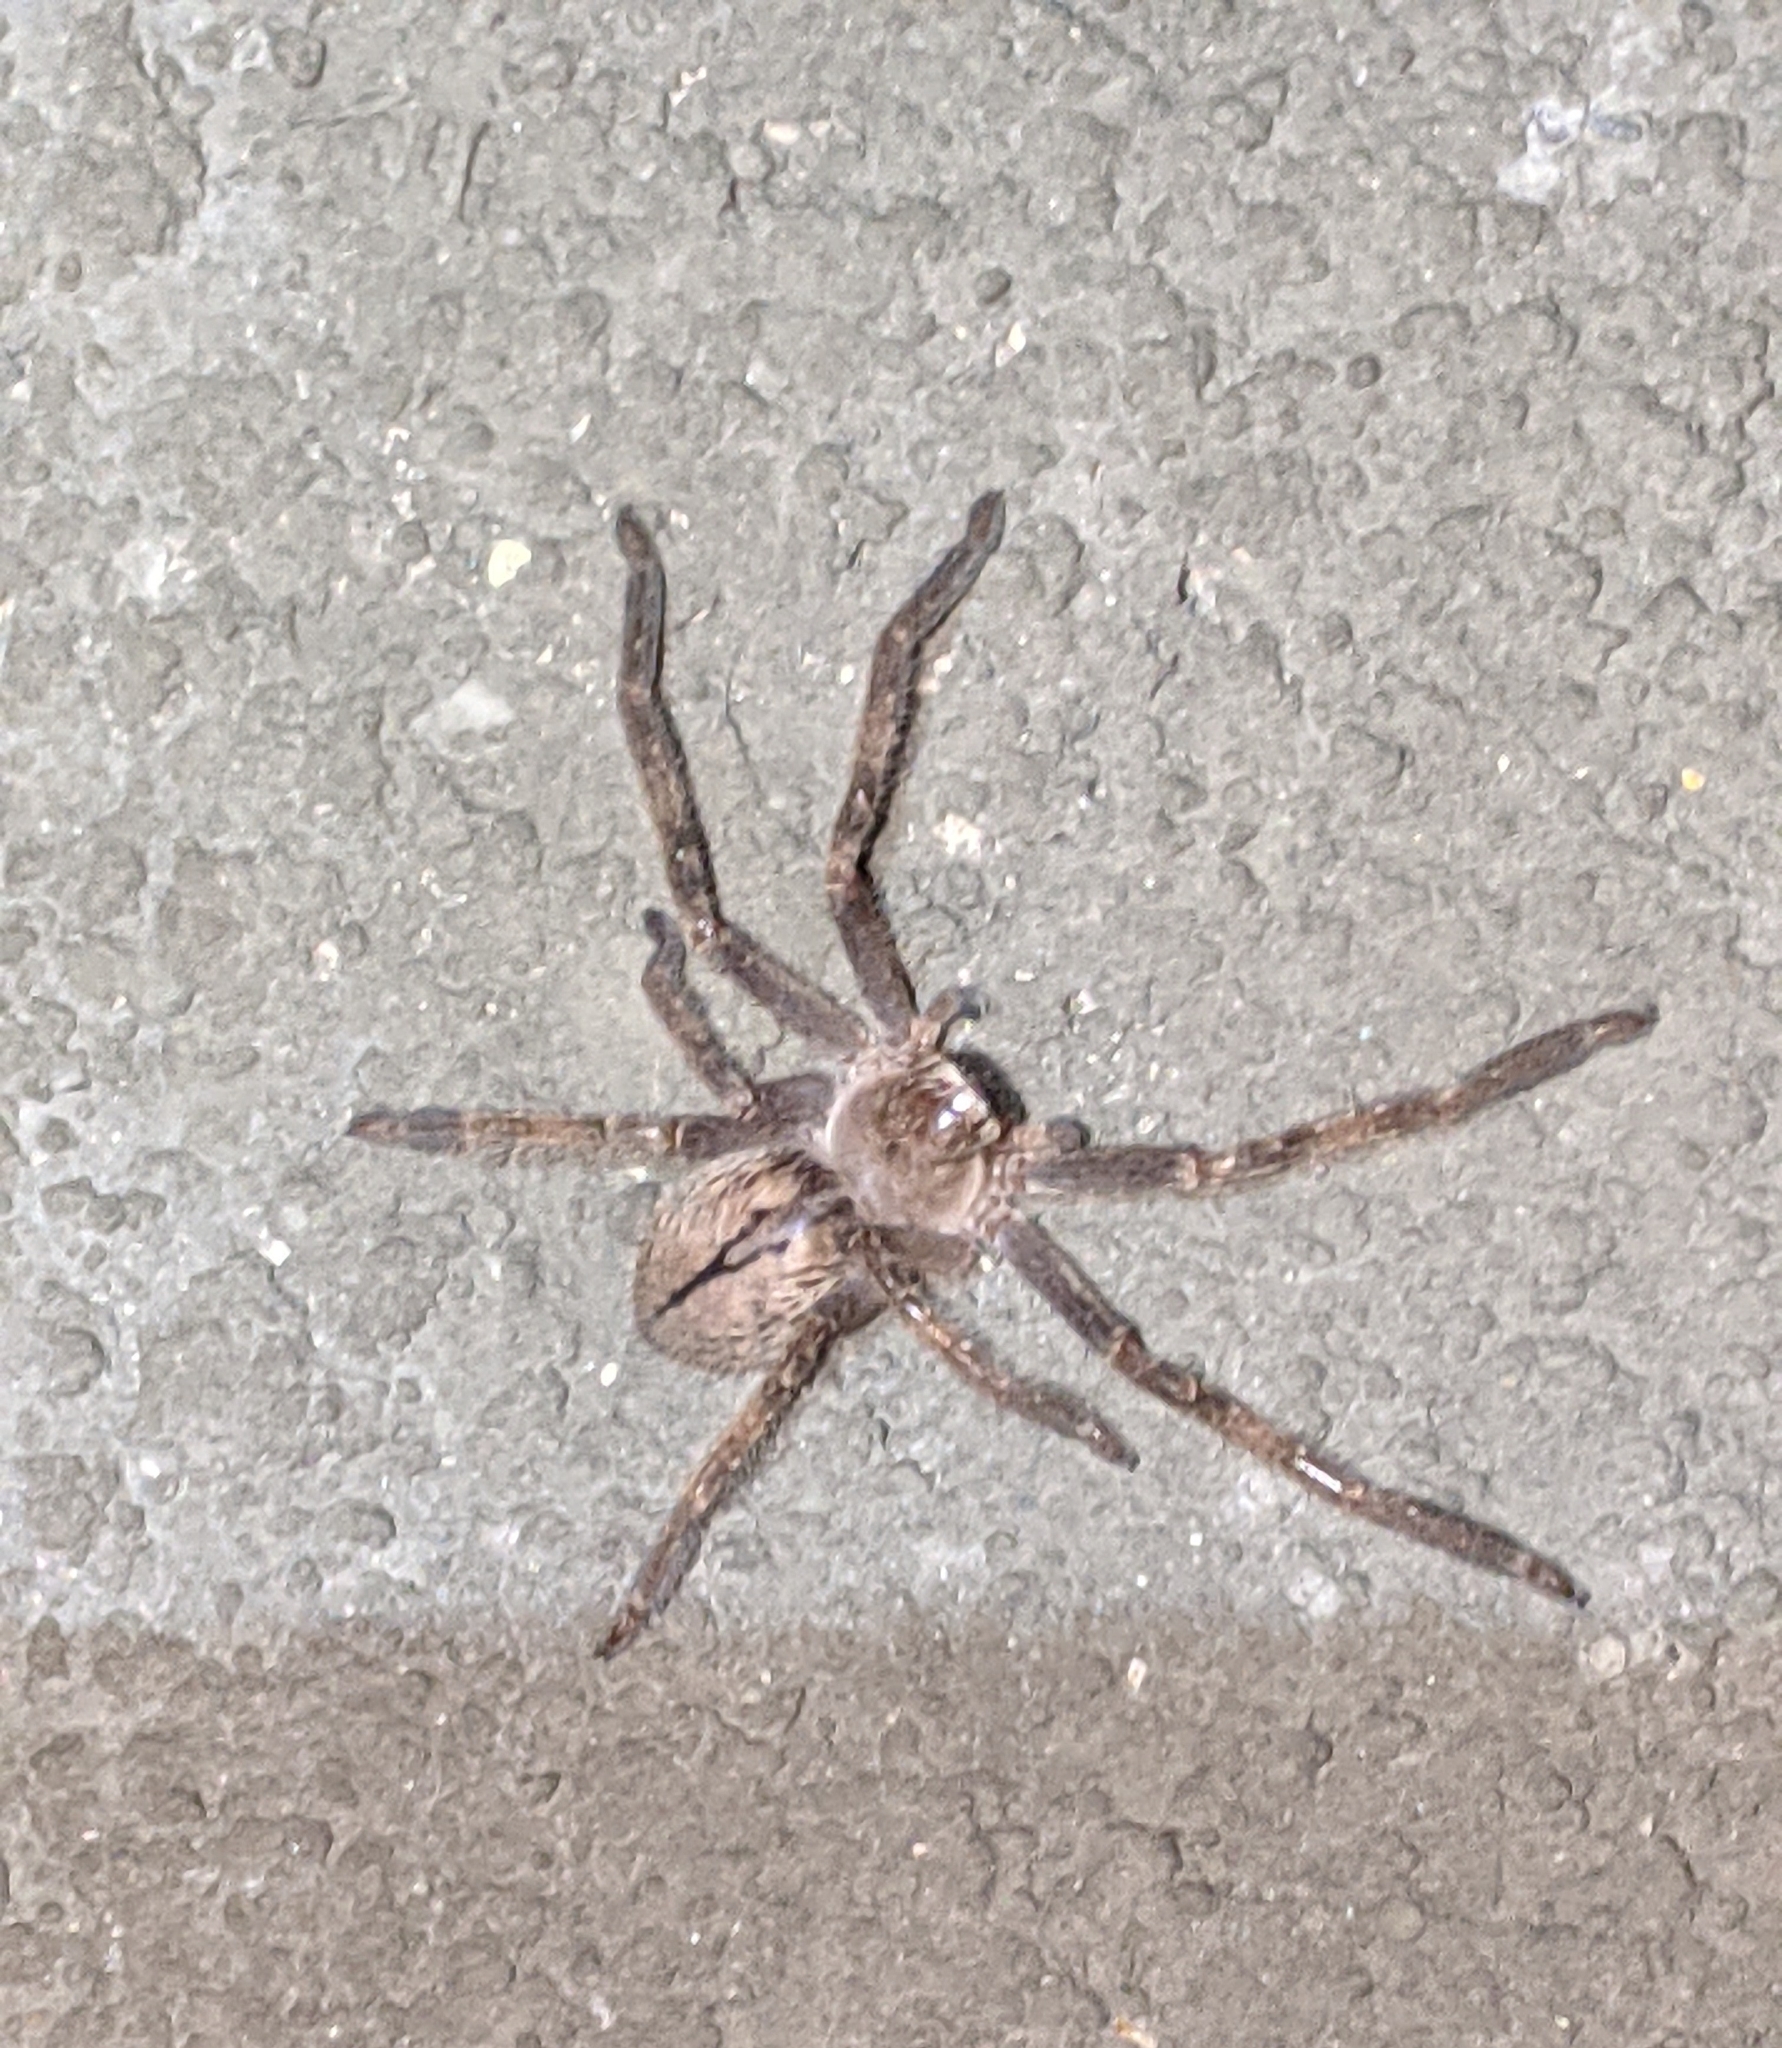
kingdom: Animalia
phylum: Arthropoda
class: Arachnida
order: Araneae
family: Sparassidae
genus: Olios
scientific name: Olios giganteus
